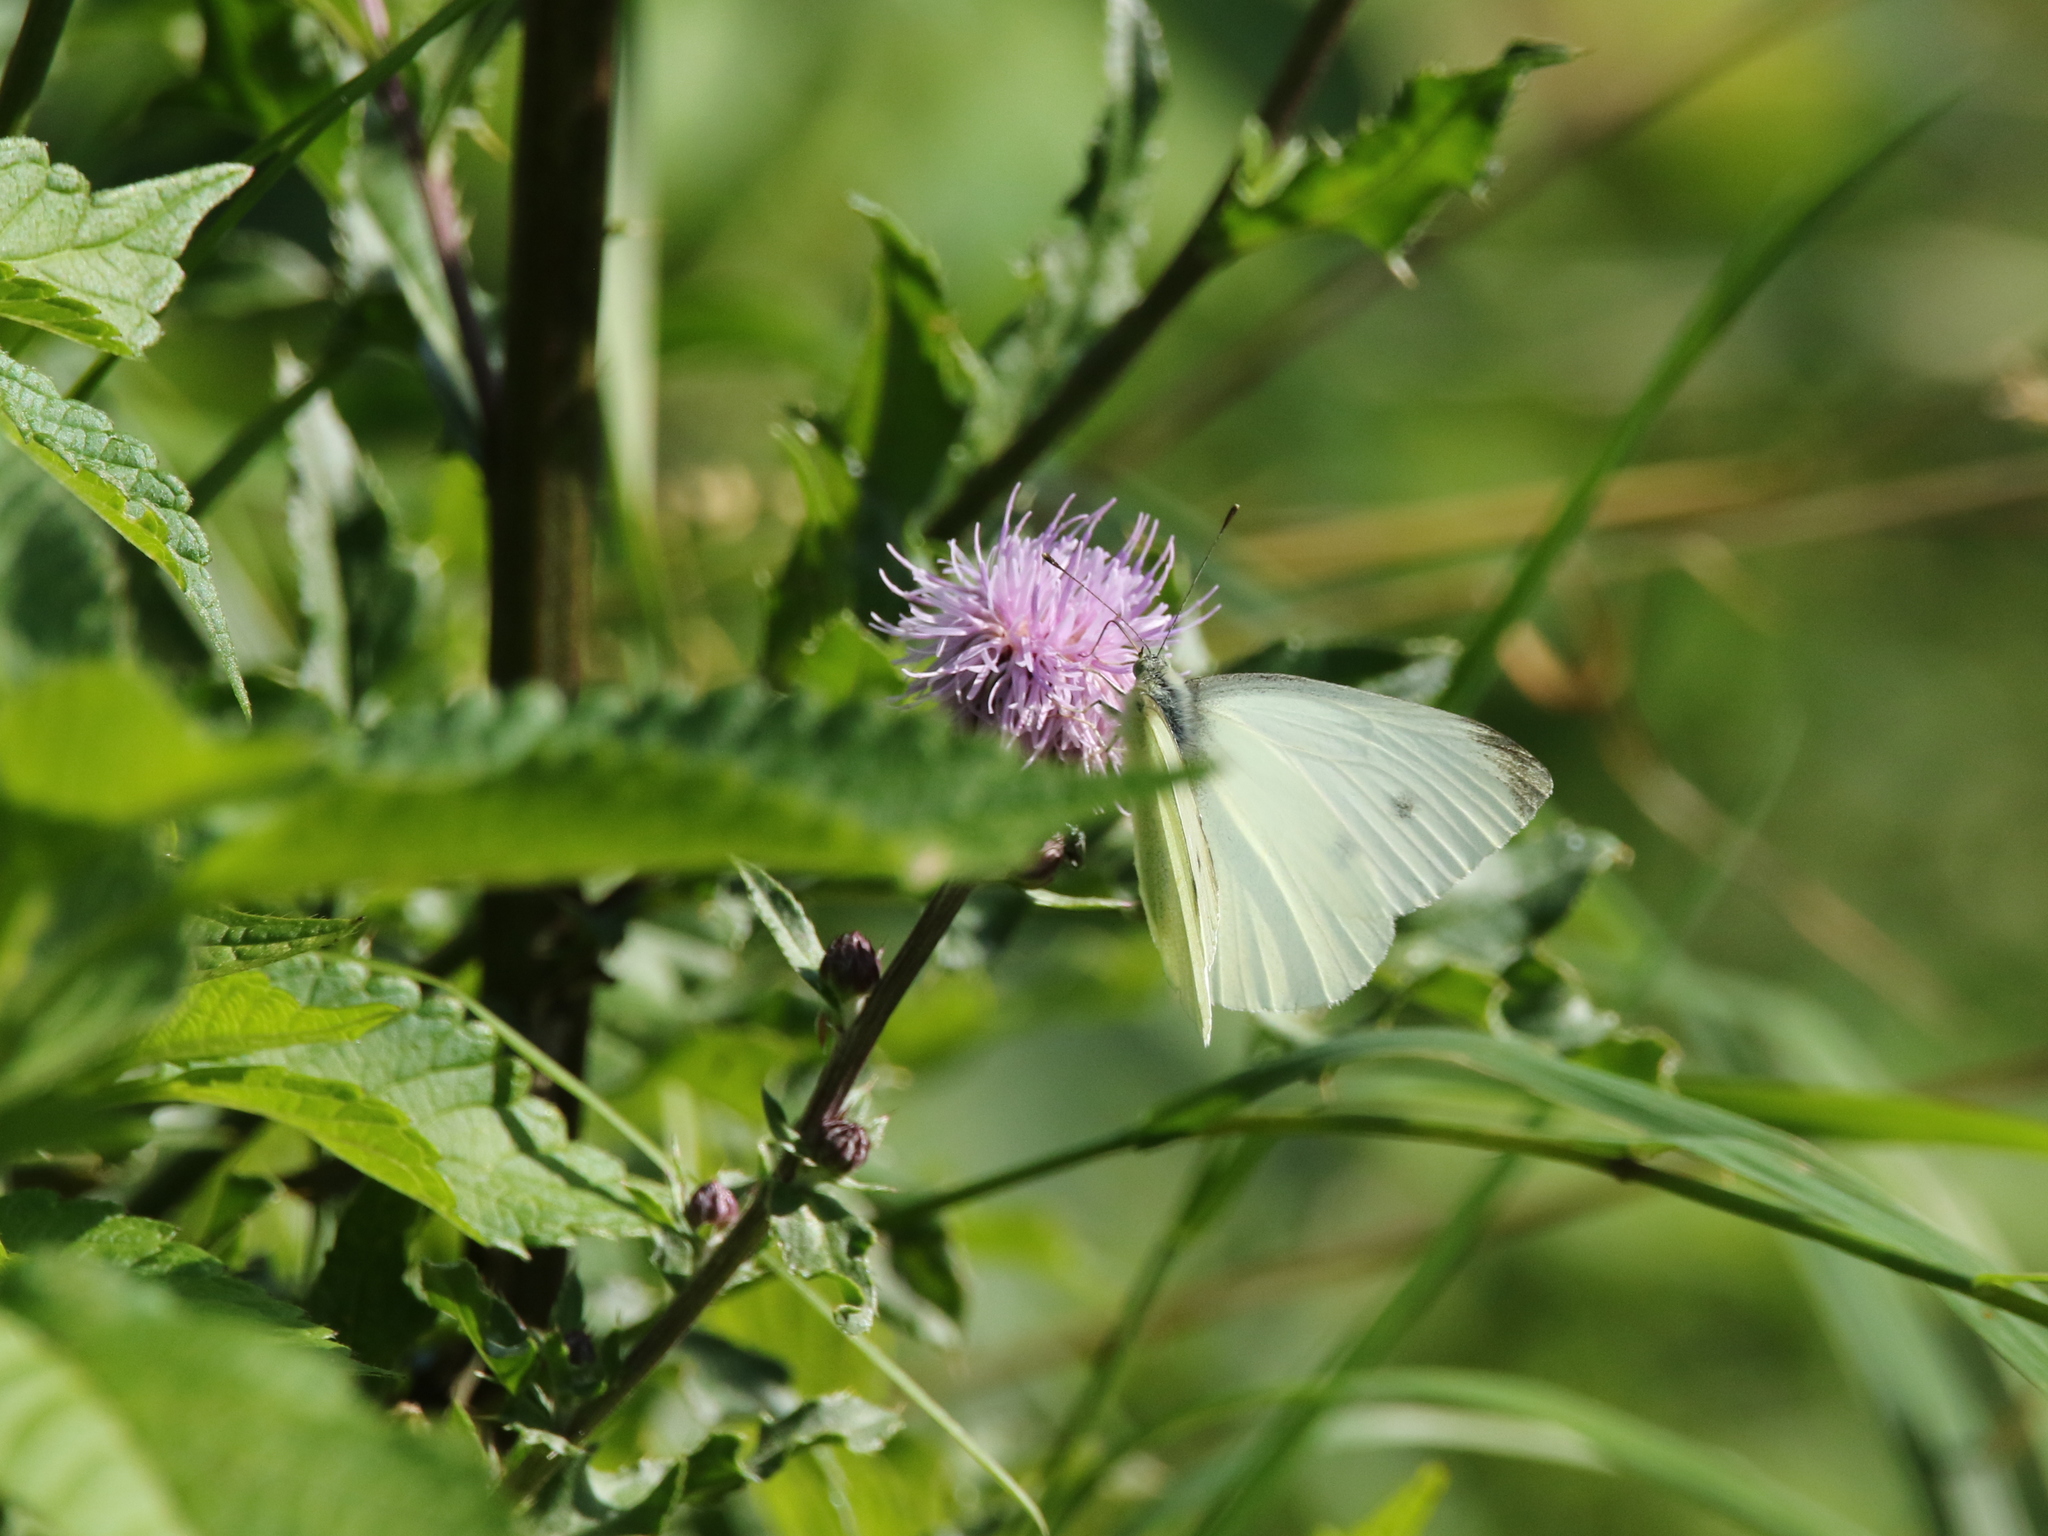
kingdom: Animalia
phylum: Arthropoda
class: Insecta
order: Lepidoptera
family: Pieridae
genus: Pieris
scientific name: Pieris rapae
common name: Small white
